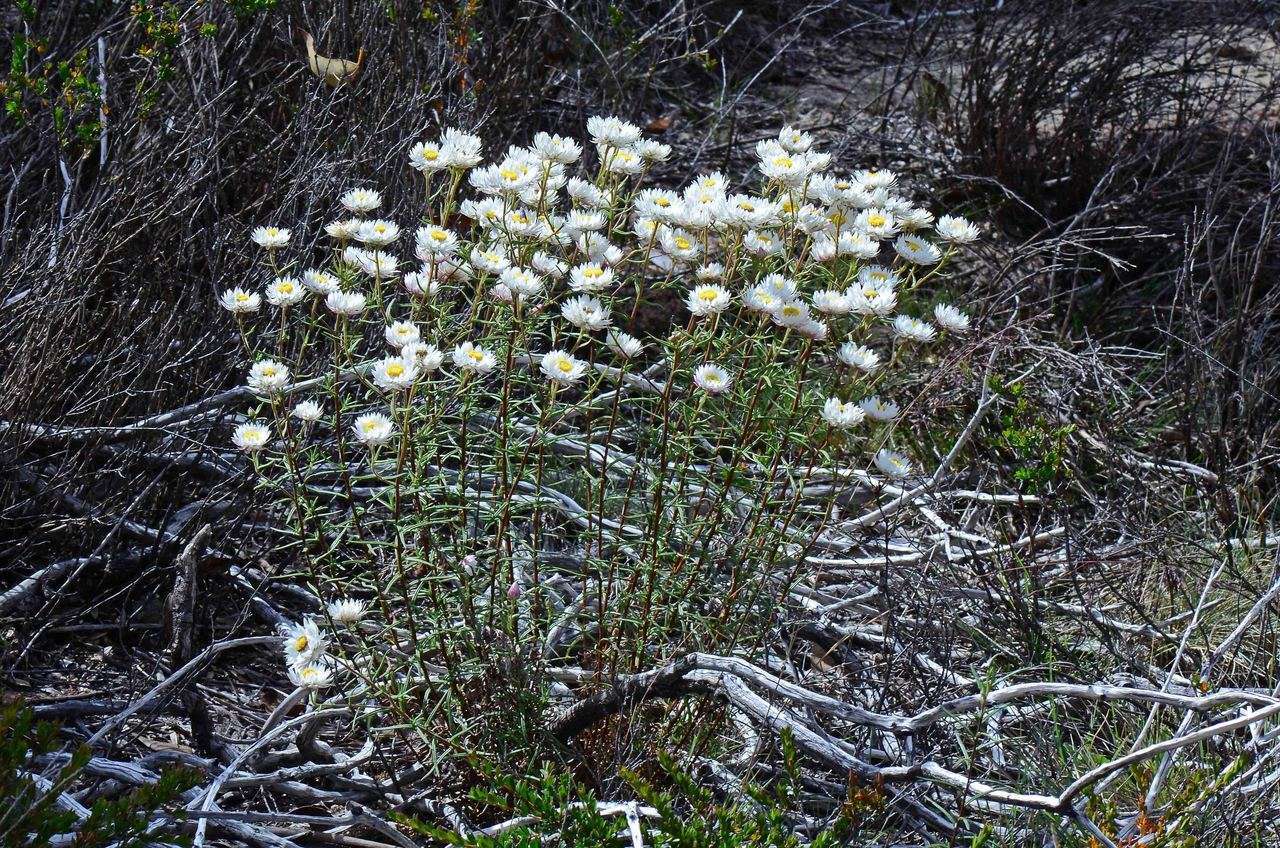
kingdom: Plantae
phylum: Tracheophyta
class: Magnoliopsida
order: Asterales
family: Asteraceae
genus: Coronidium
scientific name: Coronidium waddelliae
